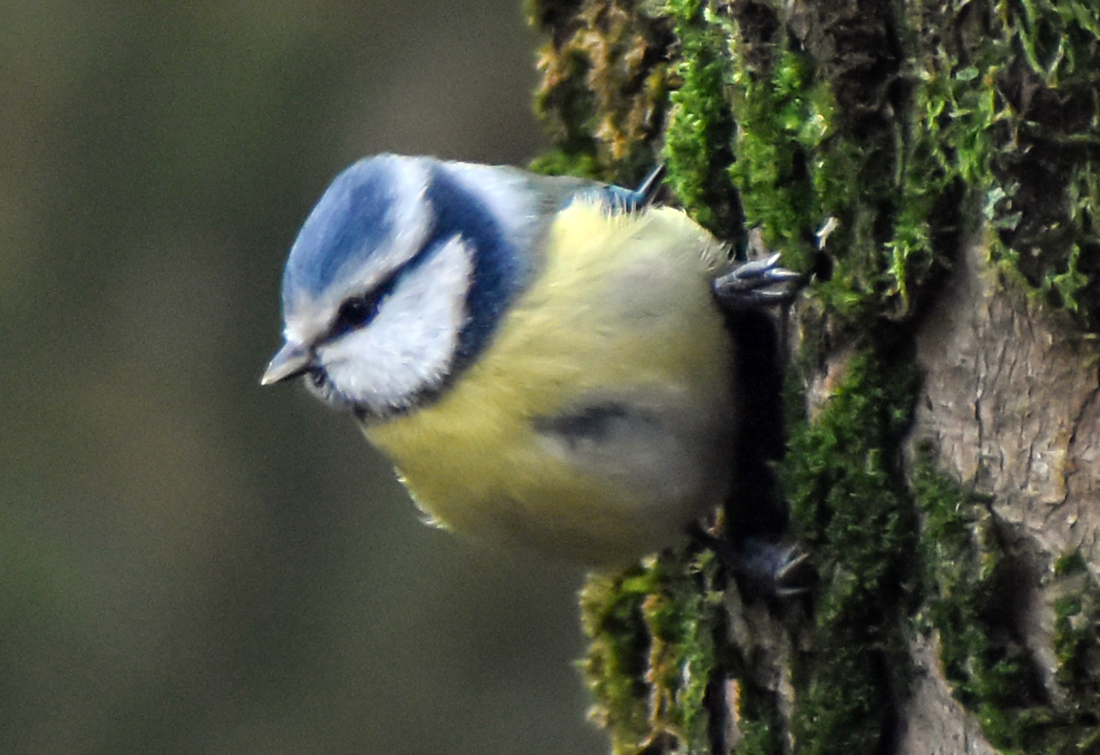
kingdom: Animalia
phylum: Chordata
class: Aves
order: Passeriformes
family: Paridae
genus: Cyanistes
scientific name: Cyanistes caeruleus
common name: Eurasian blue tit
